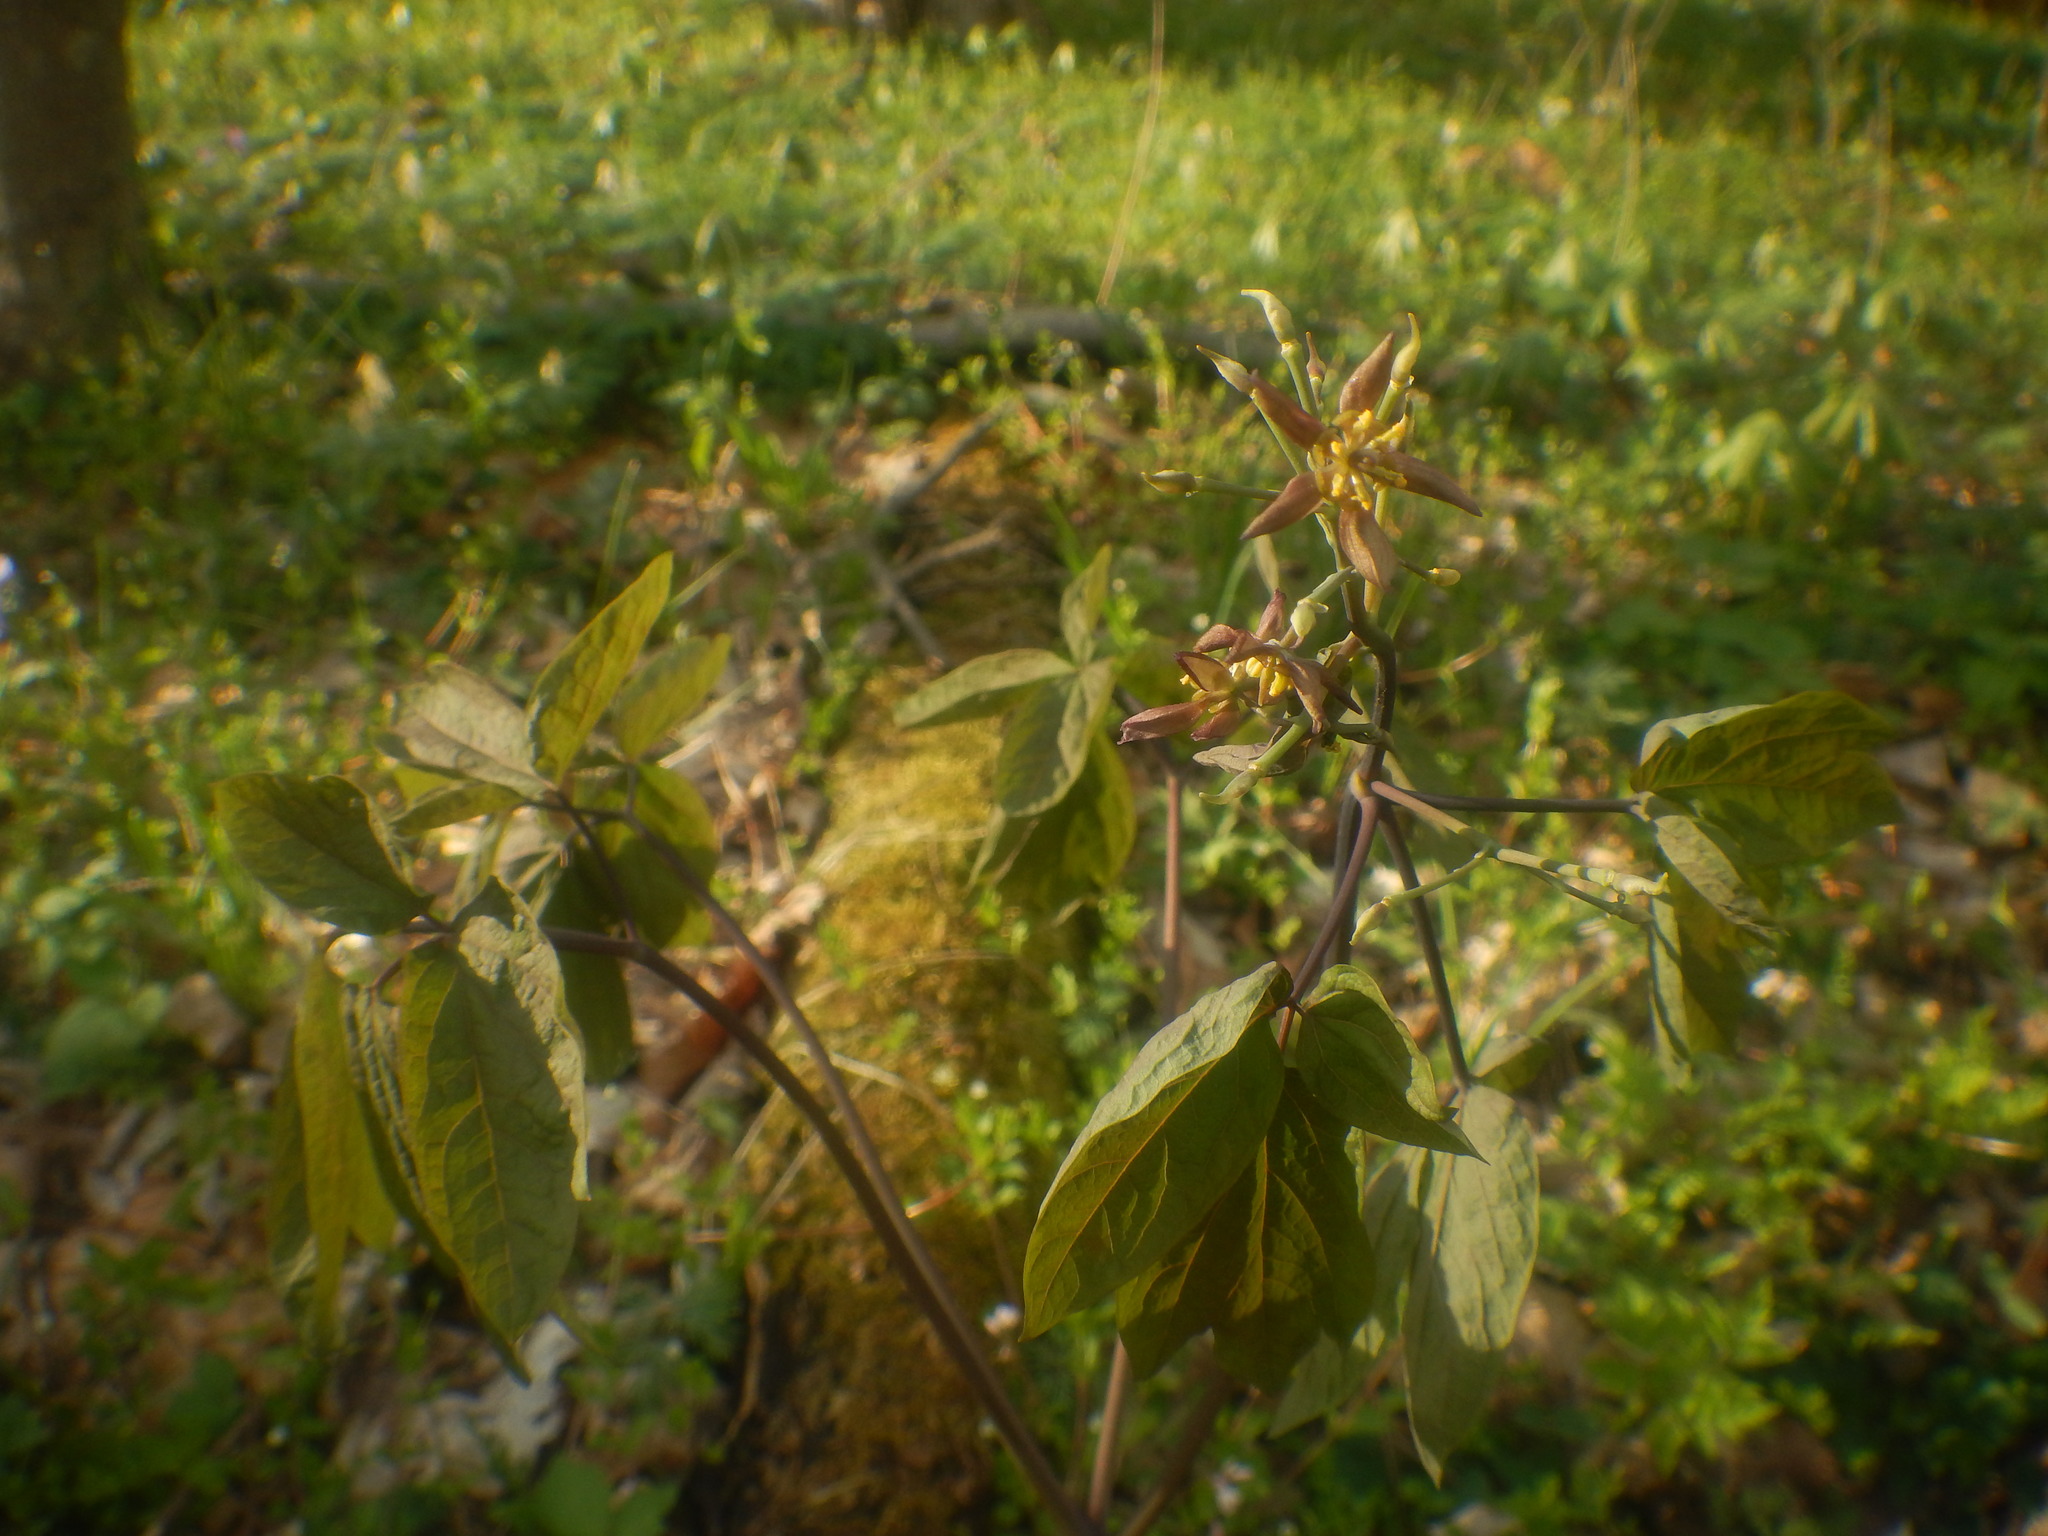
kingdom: Plantae
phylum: Tracheophyta
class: Magnoliopsida
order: Ranunculales
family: Berberidaceae
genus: Caulophyllum
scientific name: Caulophyllum giganteum
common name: Blue cohosh
